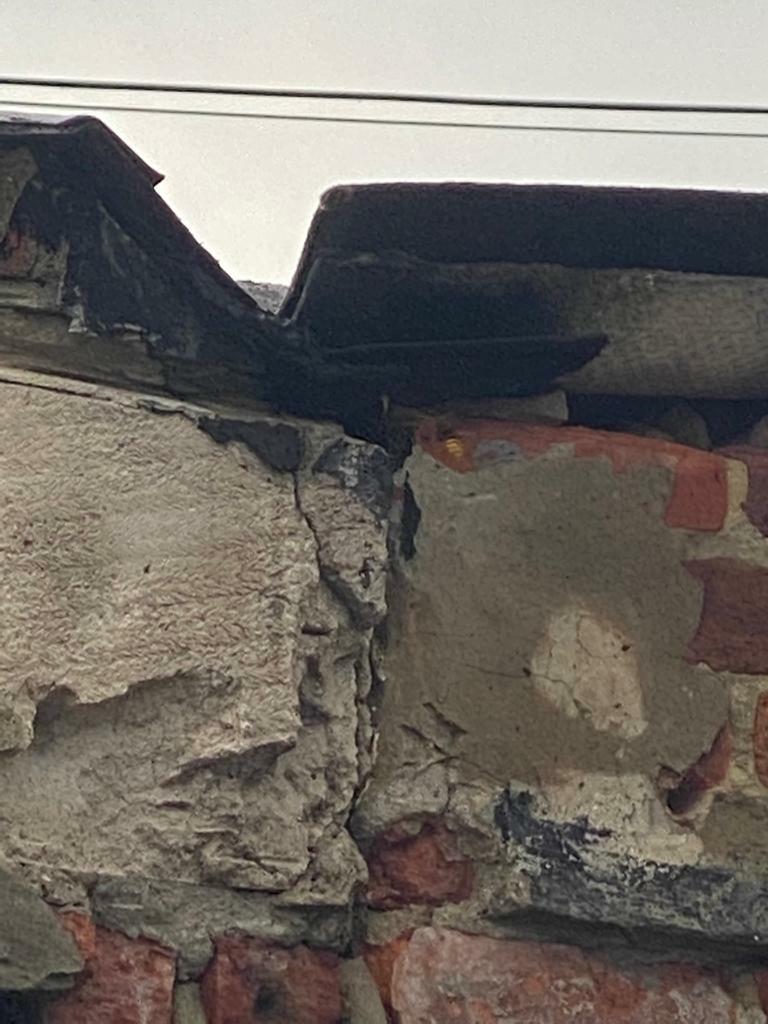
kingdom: Animalia
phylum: Arthropoda
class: Insecta
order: Hymenoptera
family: Vespidae
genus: Vespa
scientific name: Vespa crabro
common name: Hornet
